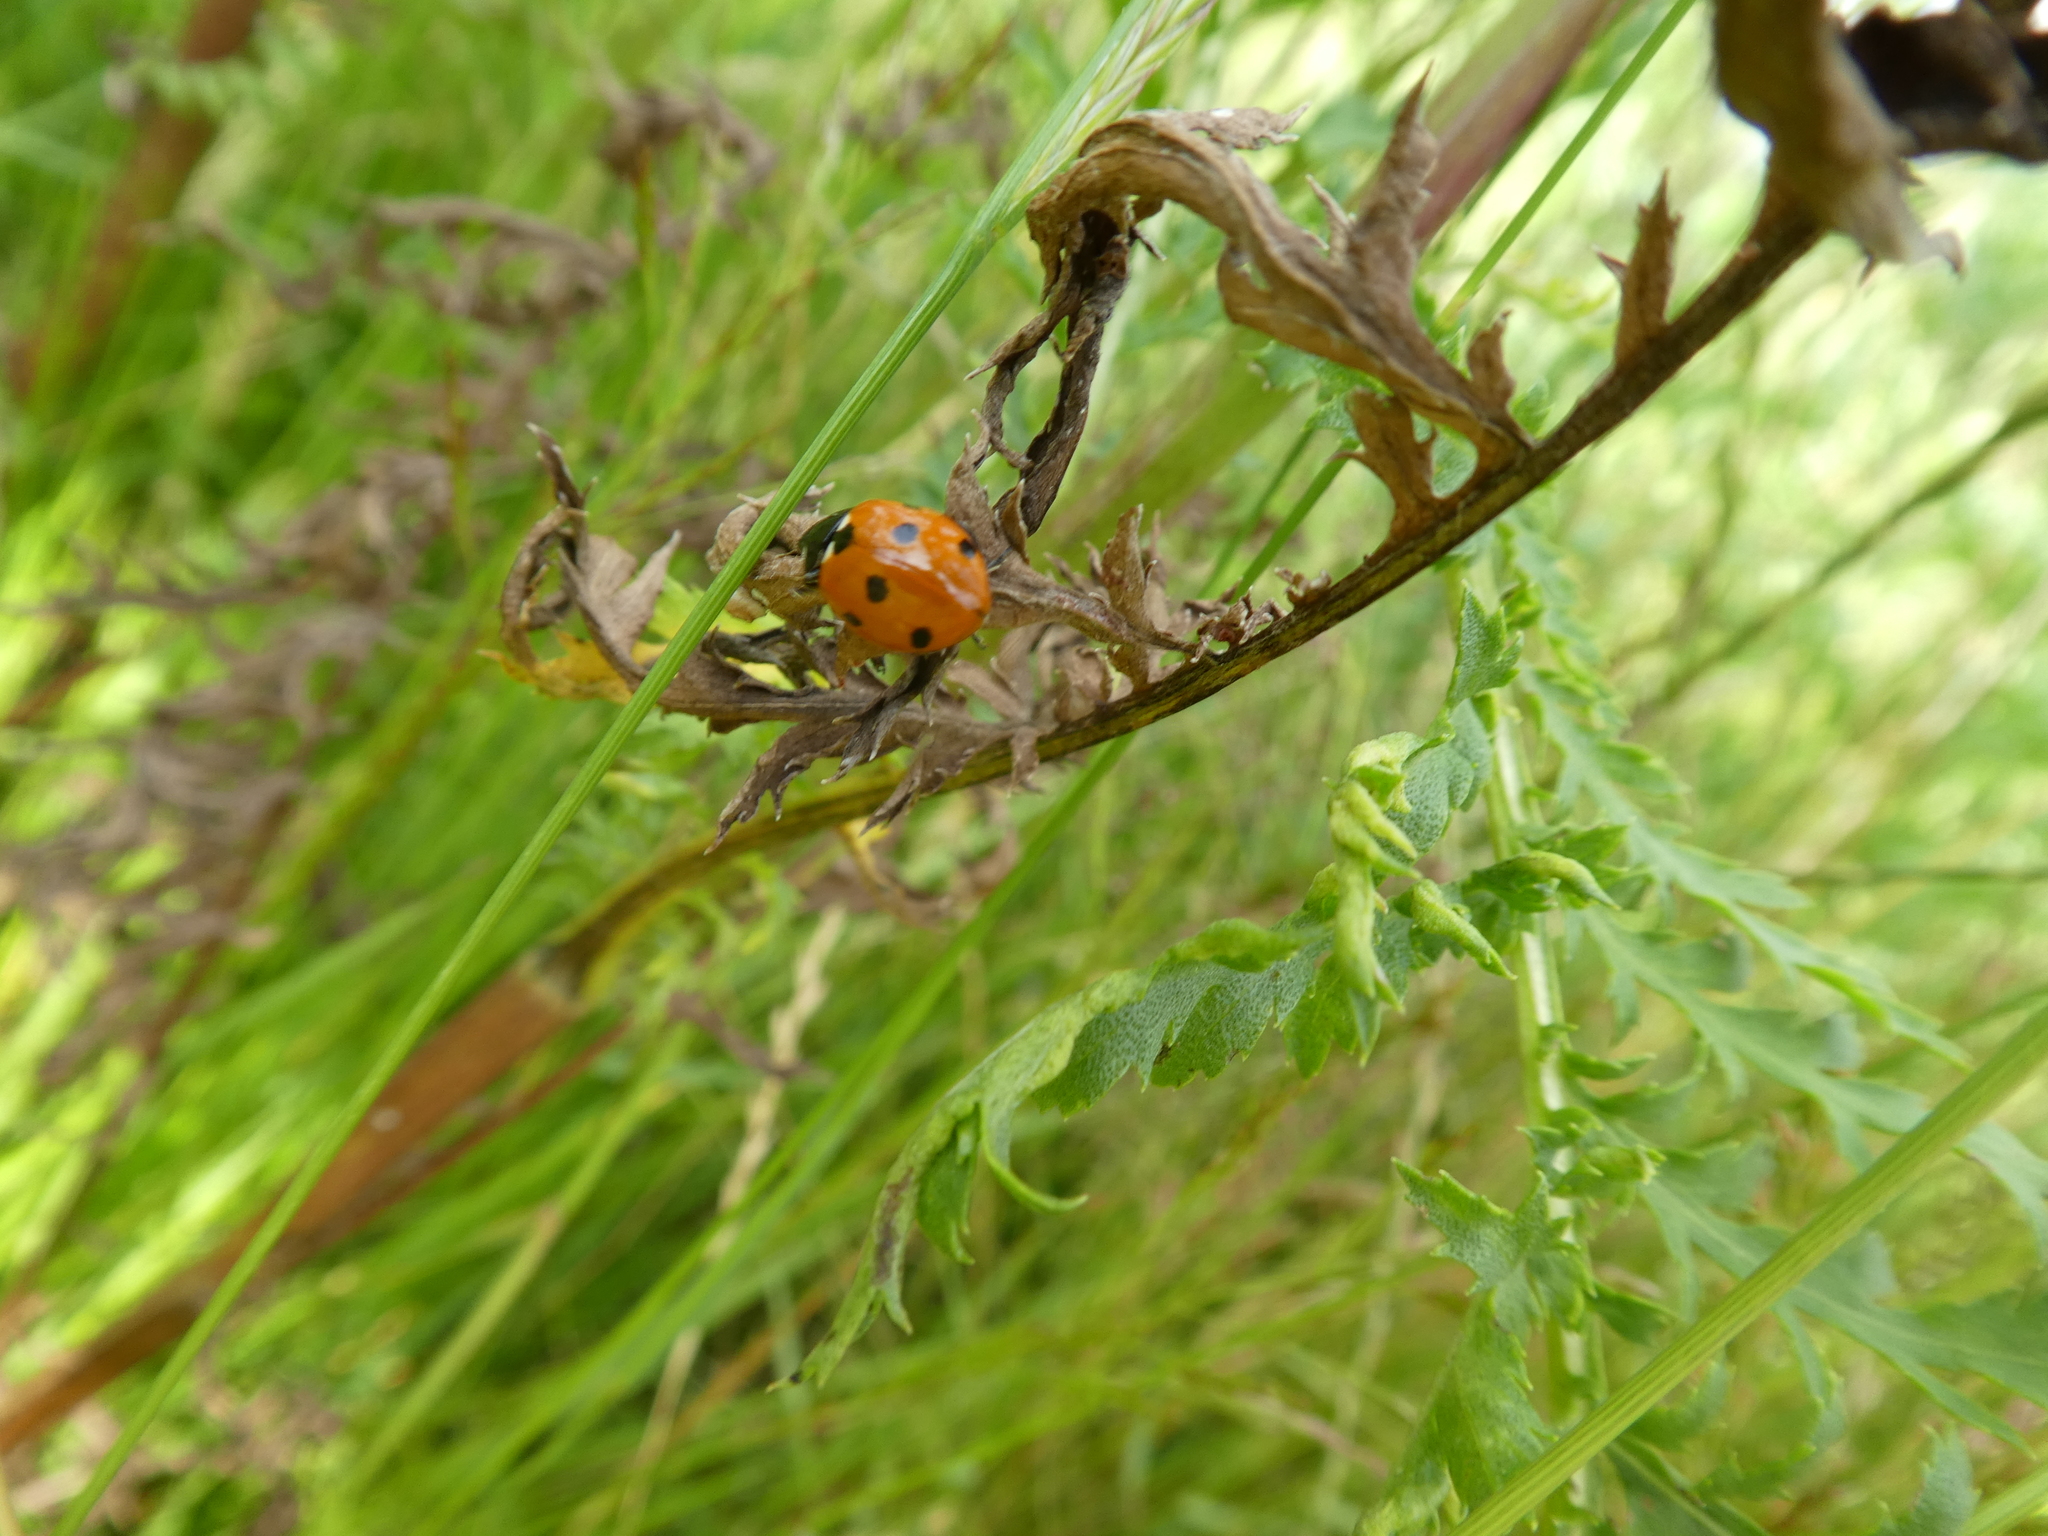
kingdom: Animalia
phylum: Arthropoda
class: Insecta
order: Coleoptera
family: Coccinellidae
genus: Coccinella
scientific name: Coccinella septempunctata
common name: Sevenspotted lady beetle
